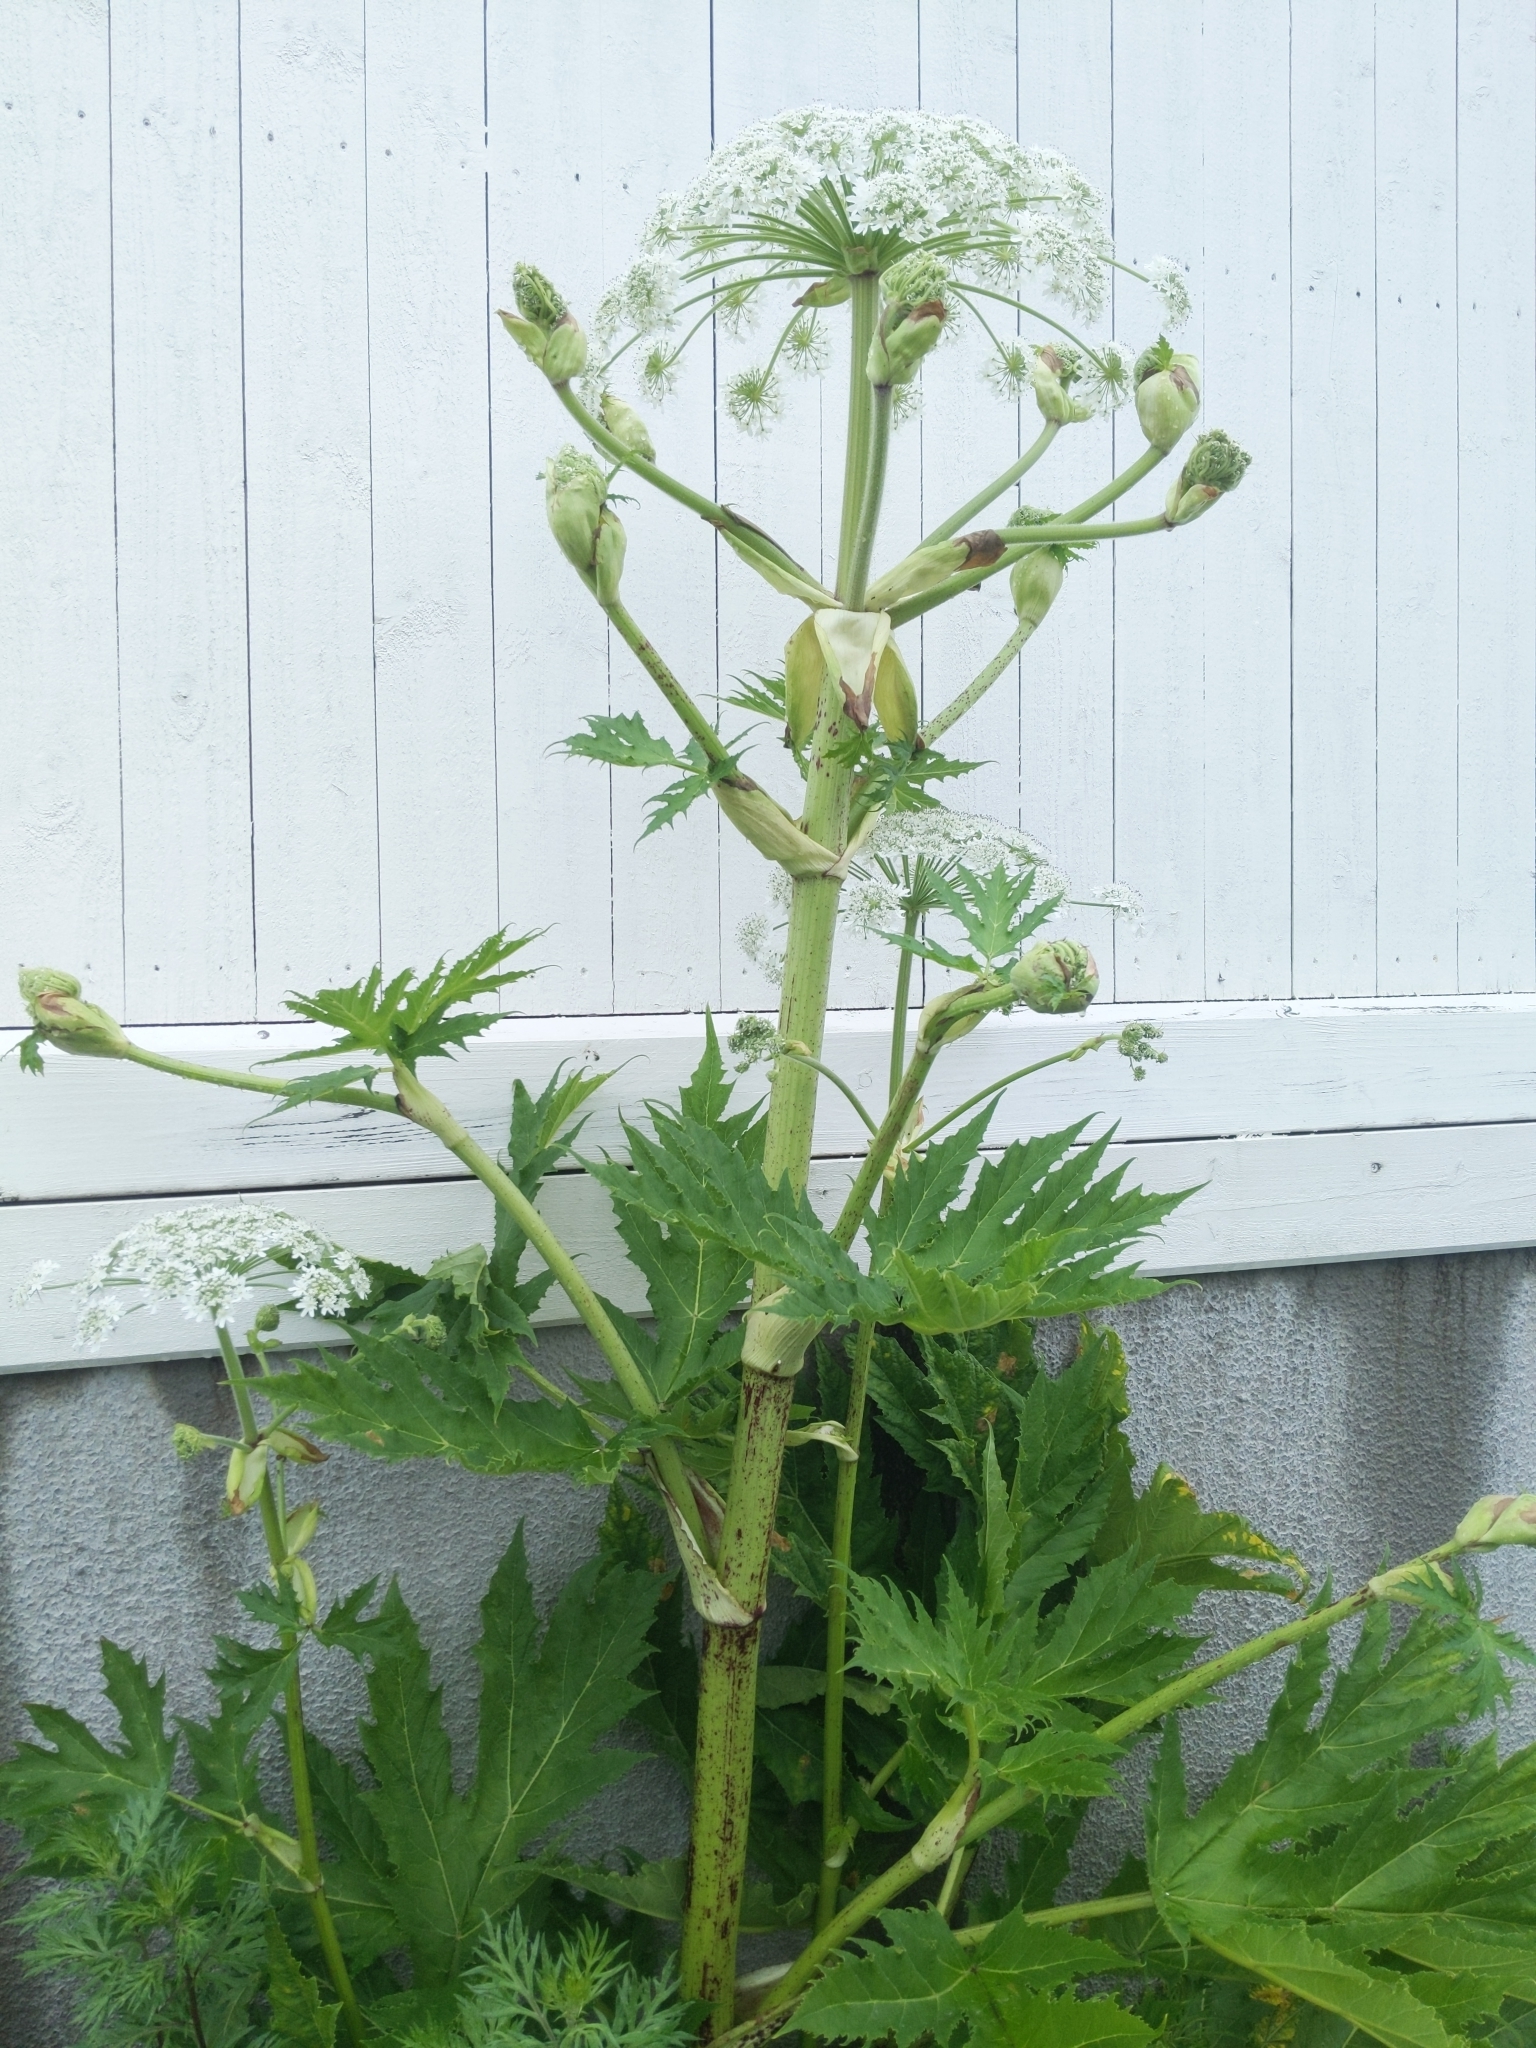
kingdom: Plantae
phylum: Tracheophyta
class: Magnoliopsida
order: Apiales
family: Apiaceae
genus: Heracleum
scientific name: Heracleum mantegazzianum
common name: Giant hogweed
